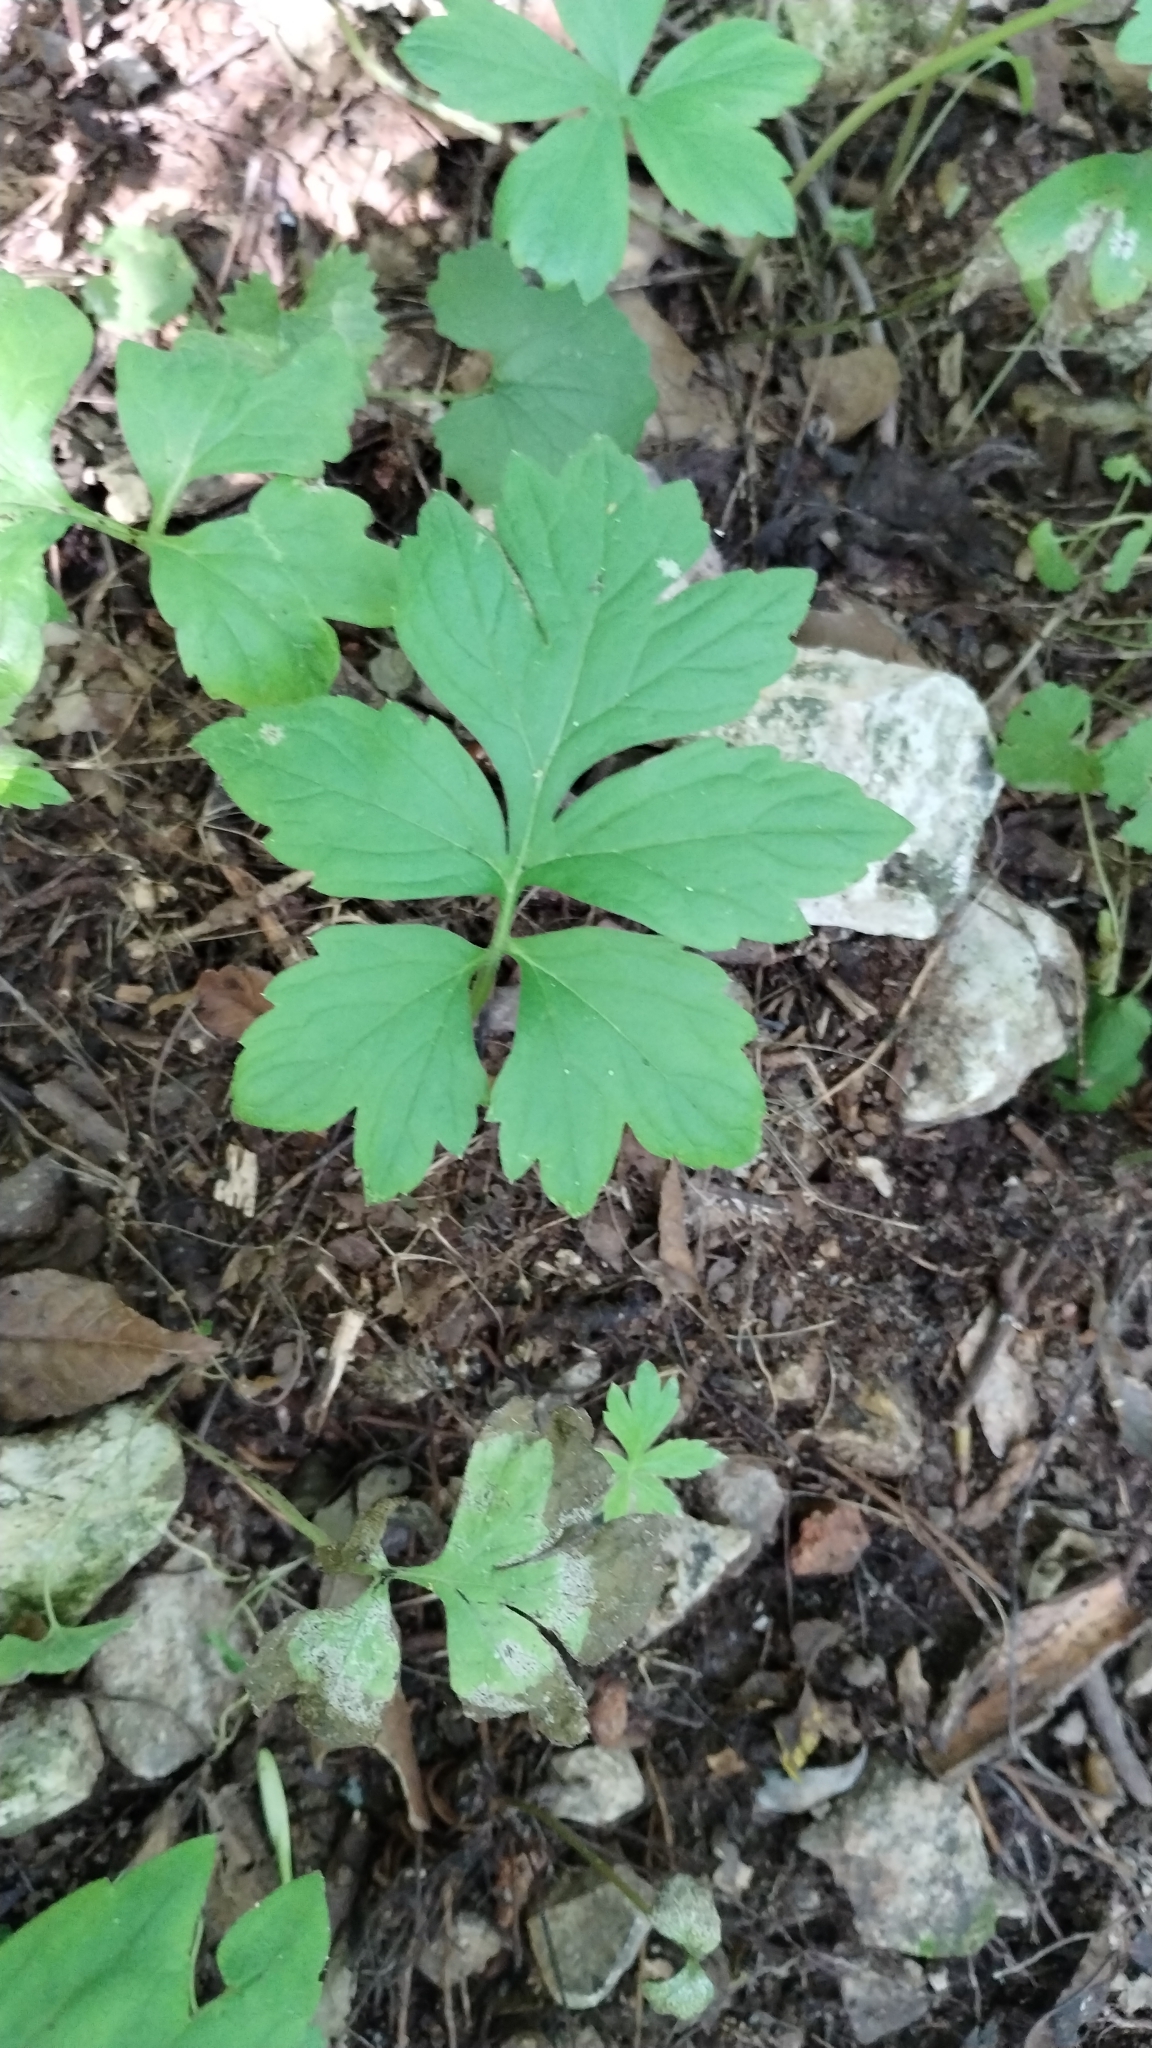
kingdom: Plantae
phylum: Tracheophyta
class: Magnoliopsida
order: Boraginales
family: Hydrophyllaceae
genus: Hydrophyllum
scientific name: Hydrophyllum virginianum
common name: Virginia waterleaf
